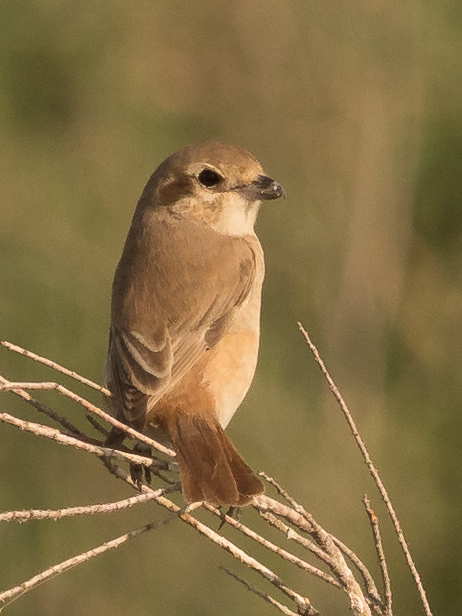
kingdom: Animalia
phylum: Chordata
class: Aves
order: Passeriformes
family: Laniidae
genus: Lanius
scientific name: Lanius isabellinus
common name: Isabelline shrike
